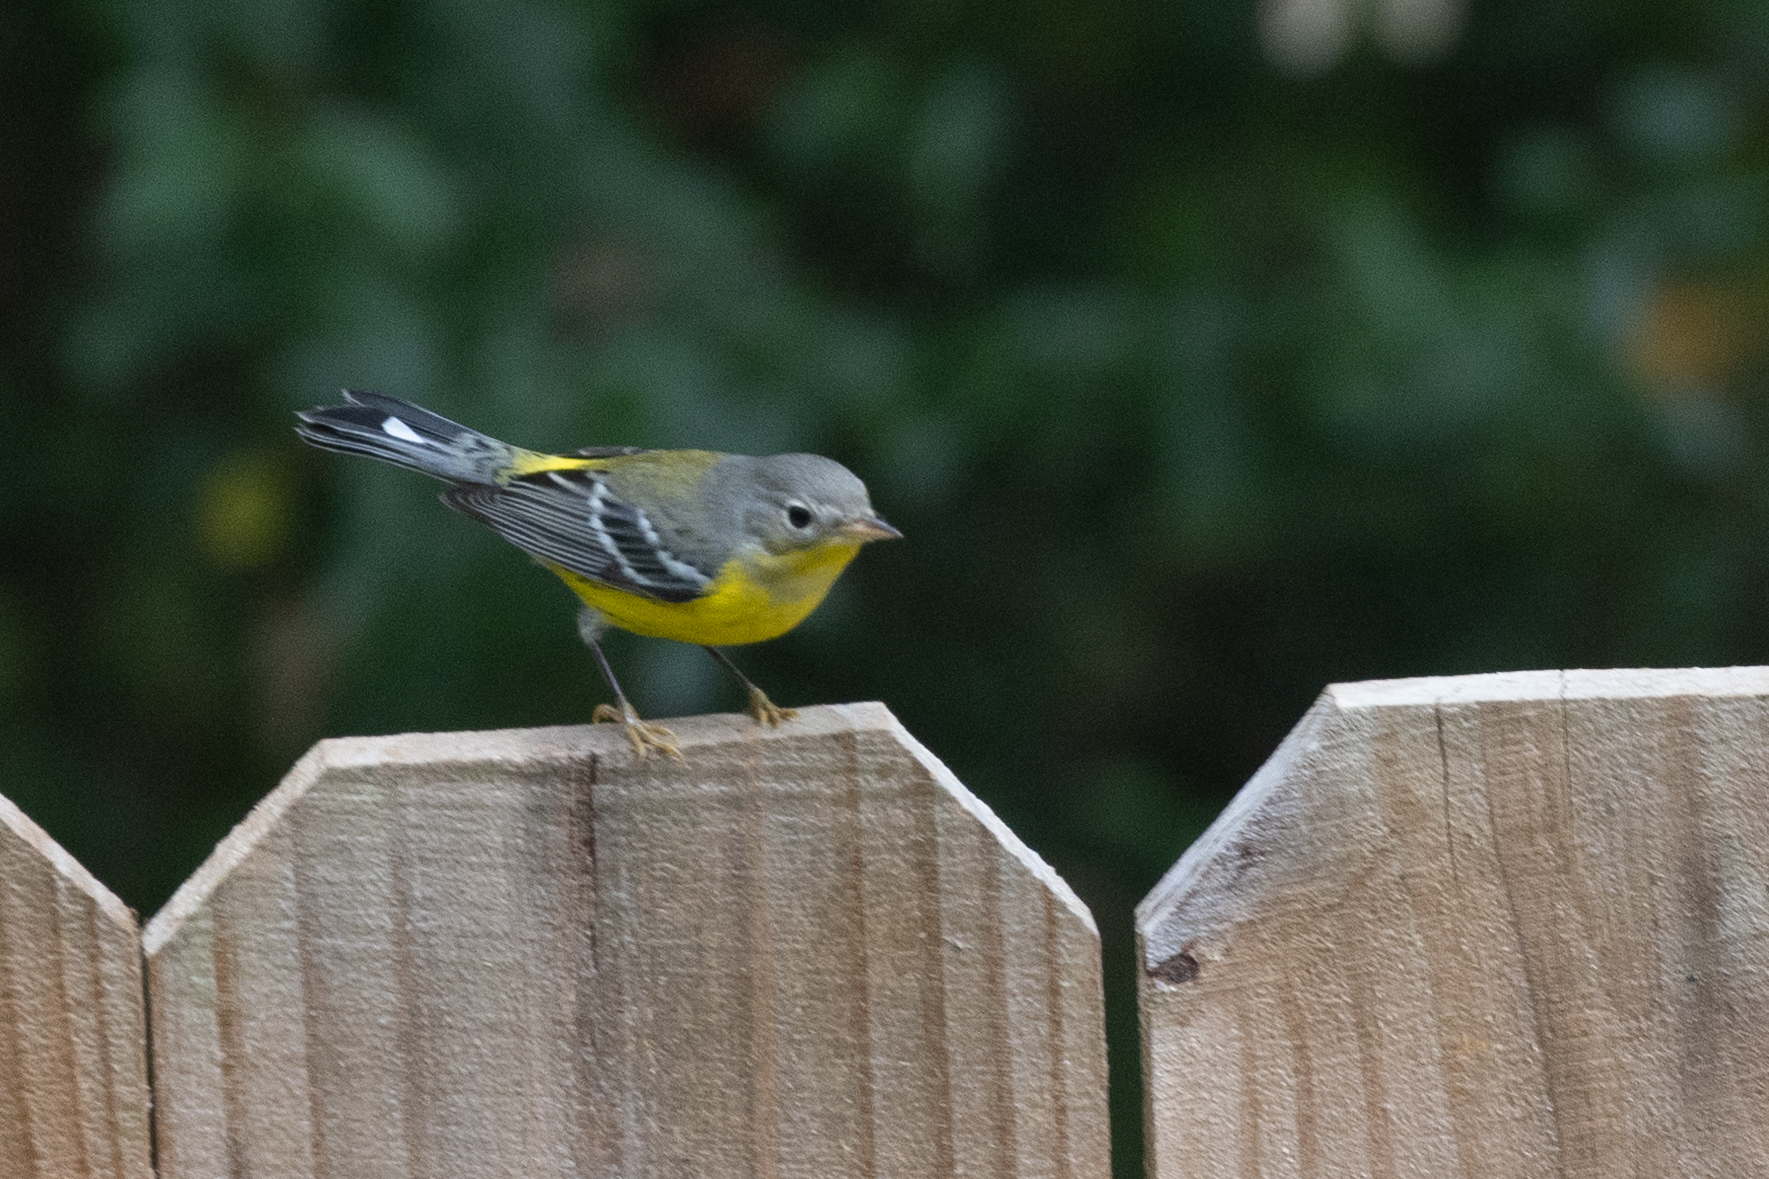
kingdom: Animalia
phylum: Chordata
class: Aves
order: Passeriformes
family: Parulidae
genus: Setophaga
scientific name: Setophaga magnolia
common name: Magnolia warbler
